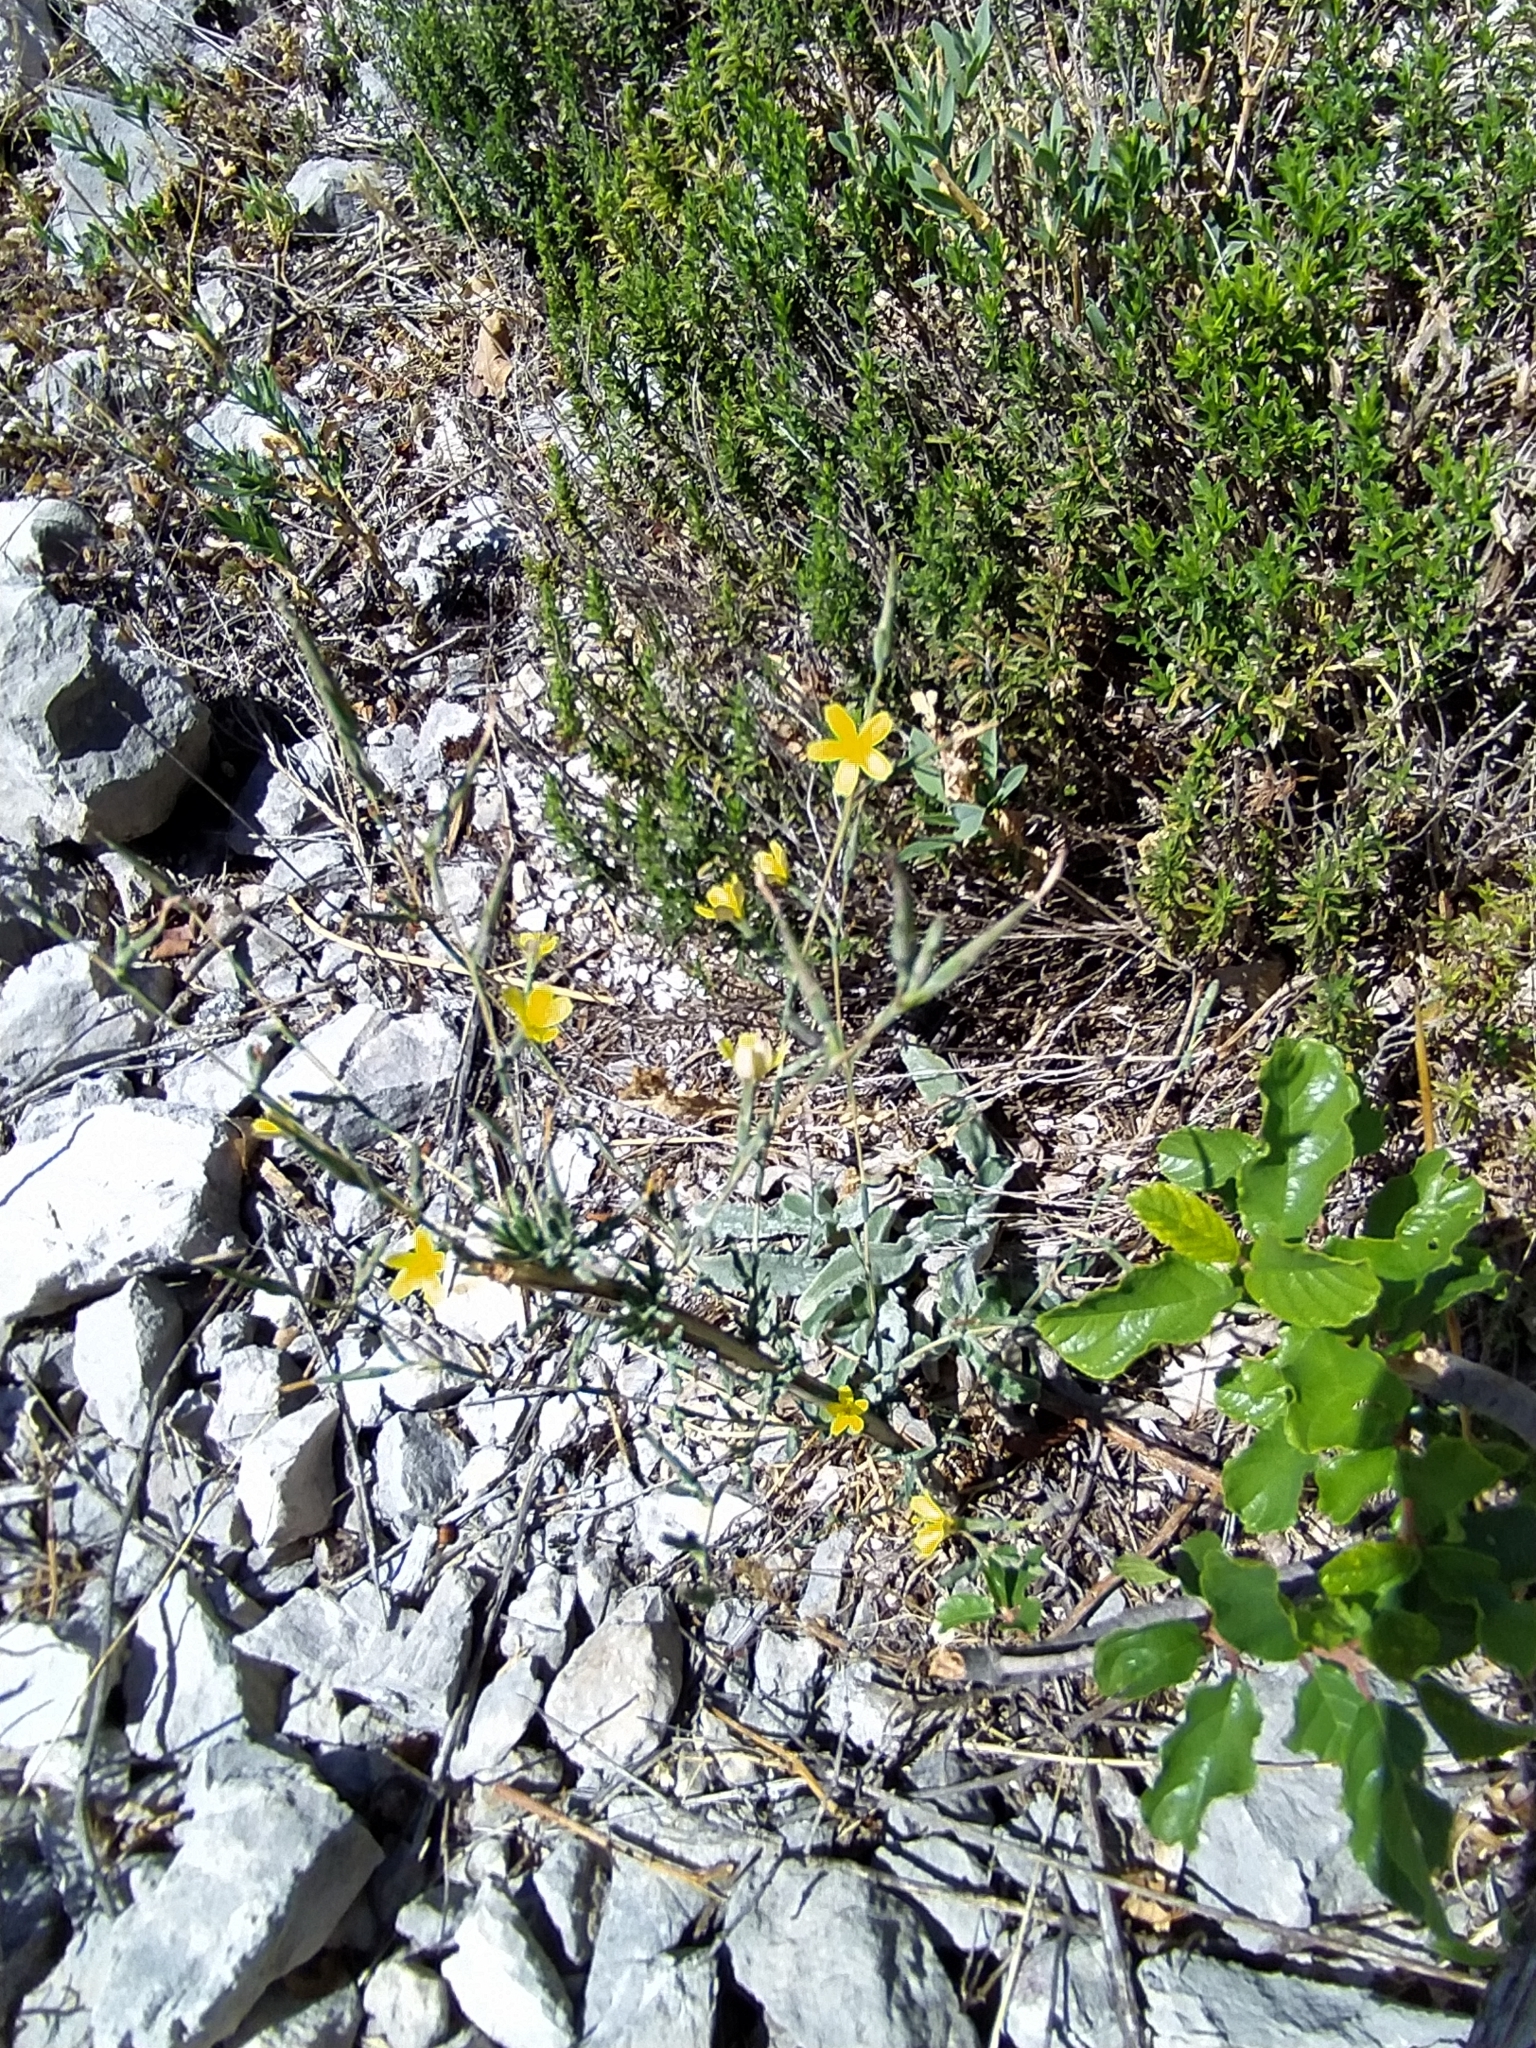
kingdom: Plantae
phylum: Tracheophyta
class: Magnoliopsida
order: Asterales
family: Asteraceae
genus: Lactuca
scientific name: Lactuca viminea
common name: Pliant lettuce
